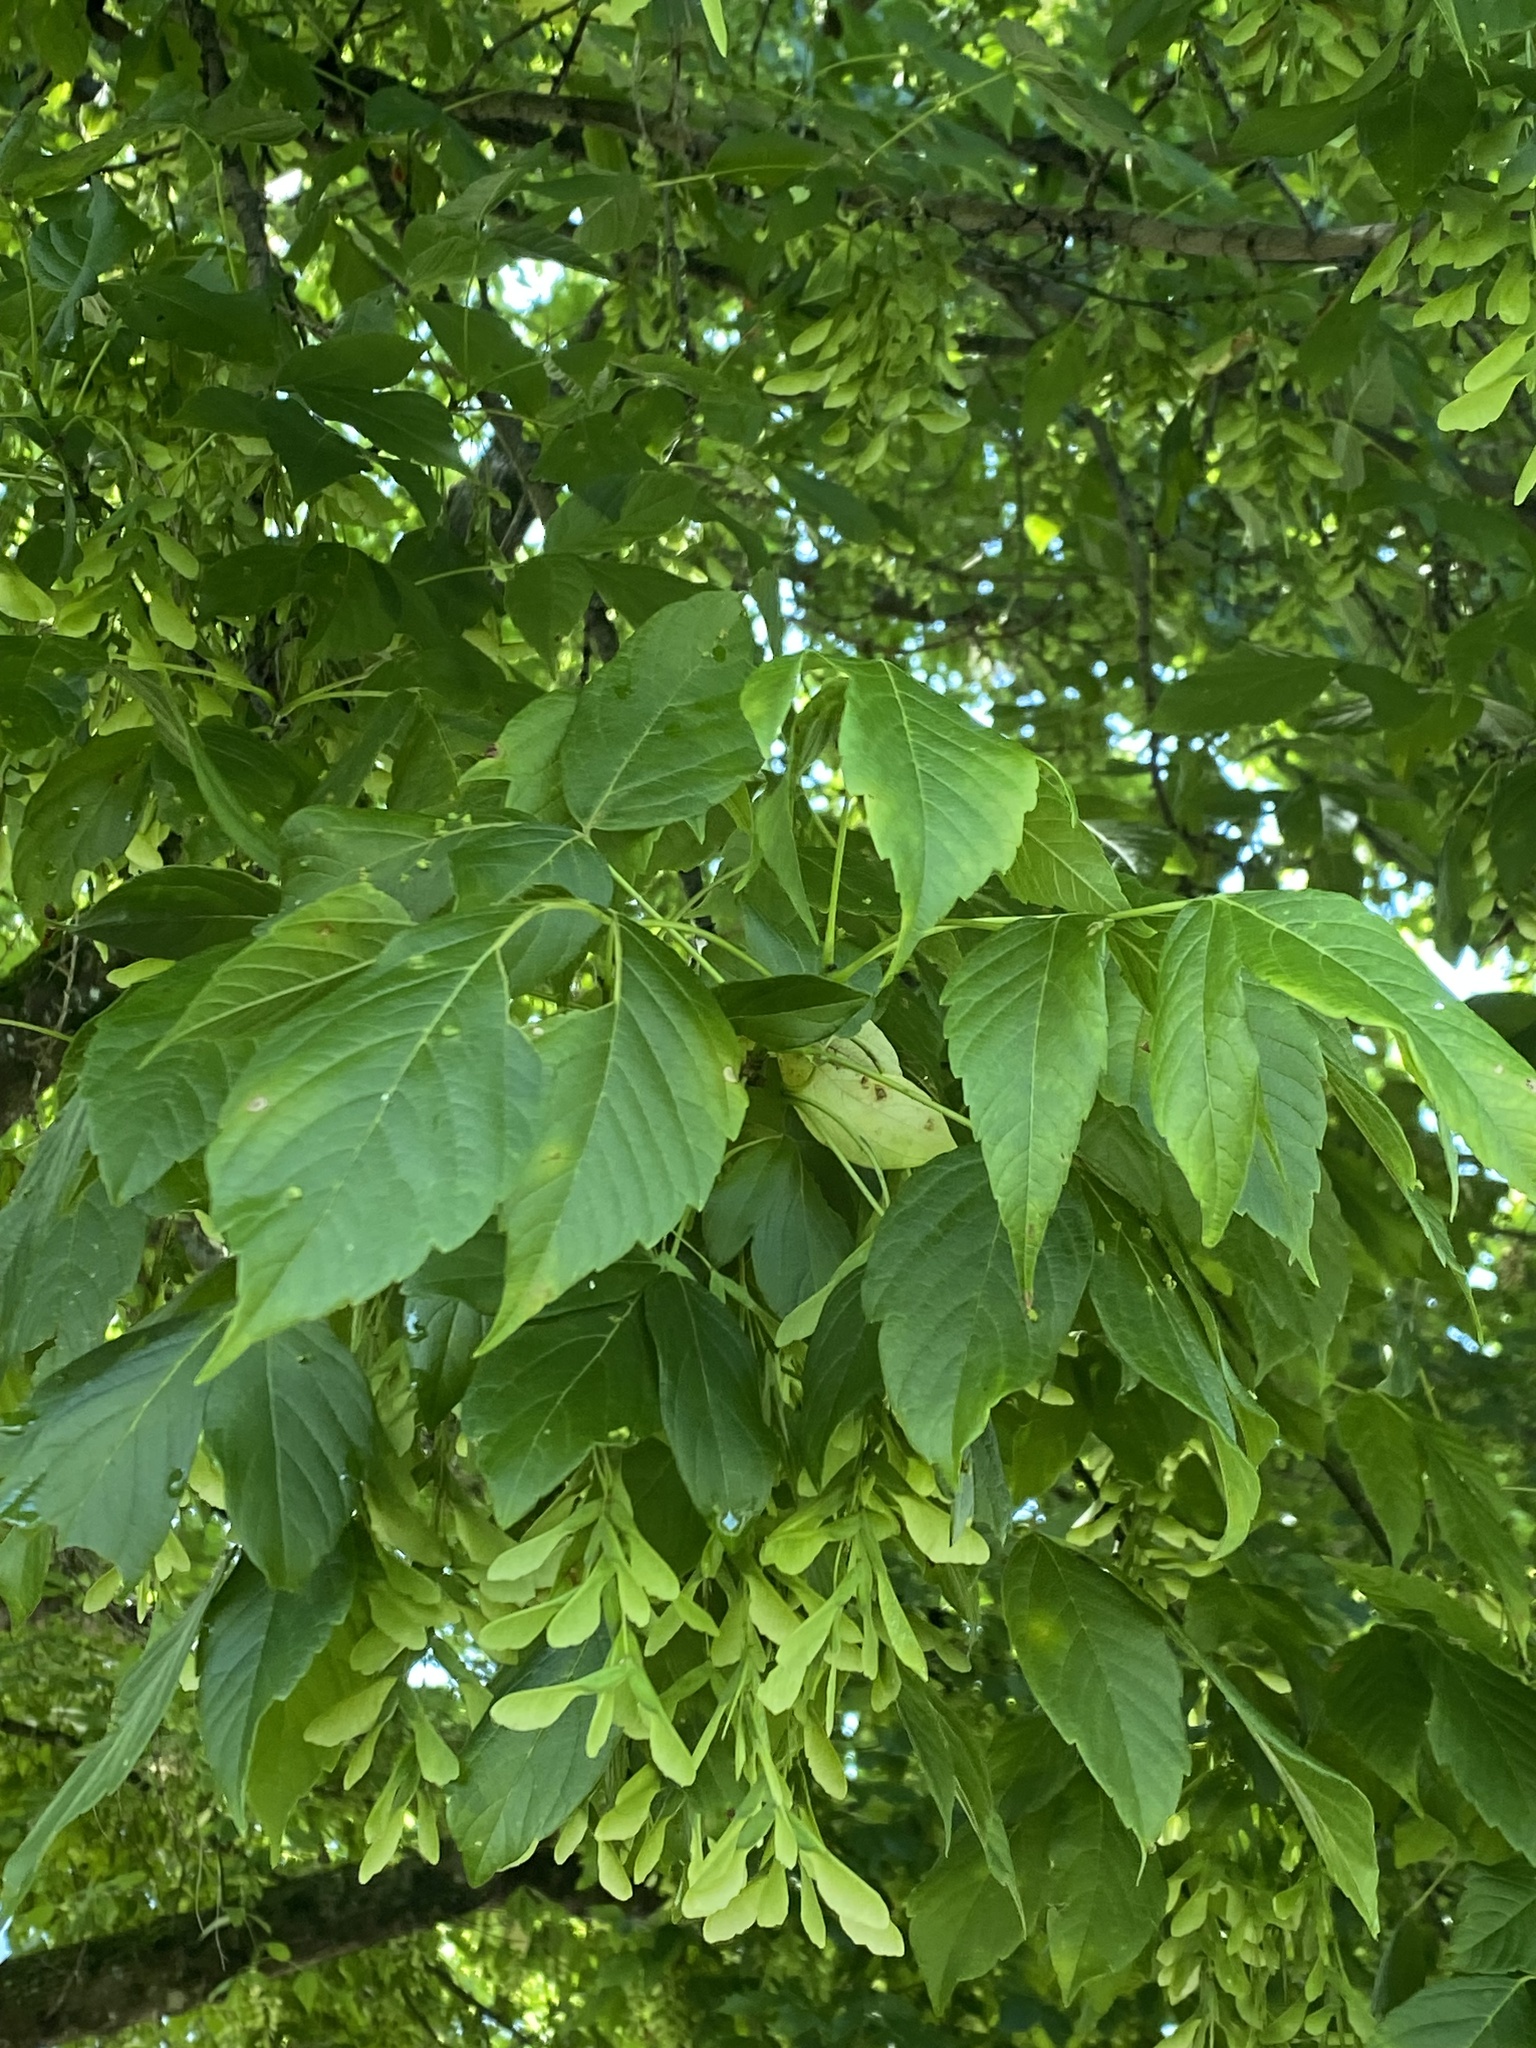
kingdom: Plantae
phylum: Tracheophyta
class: Magnoliopsida
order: Sapindales
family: Sapindaceae
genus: Acer
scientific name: Acer negundo
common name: Ashleaf maple
